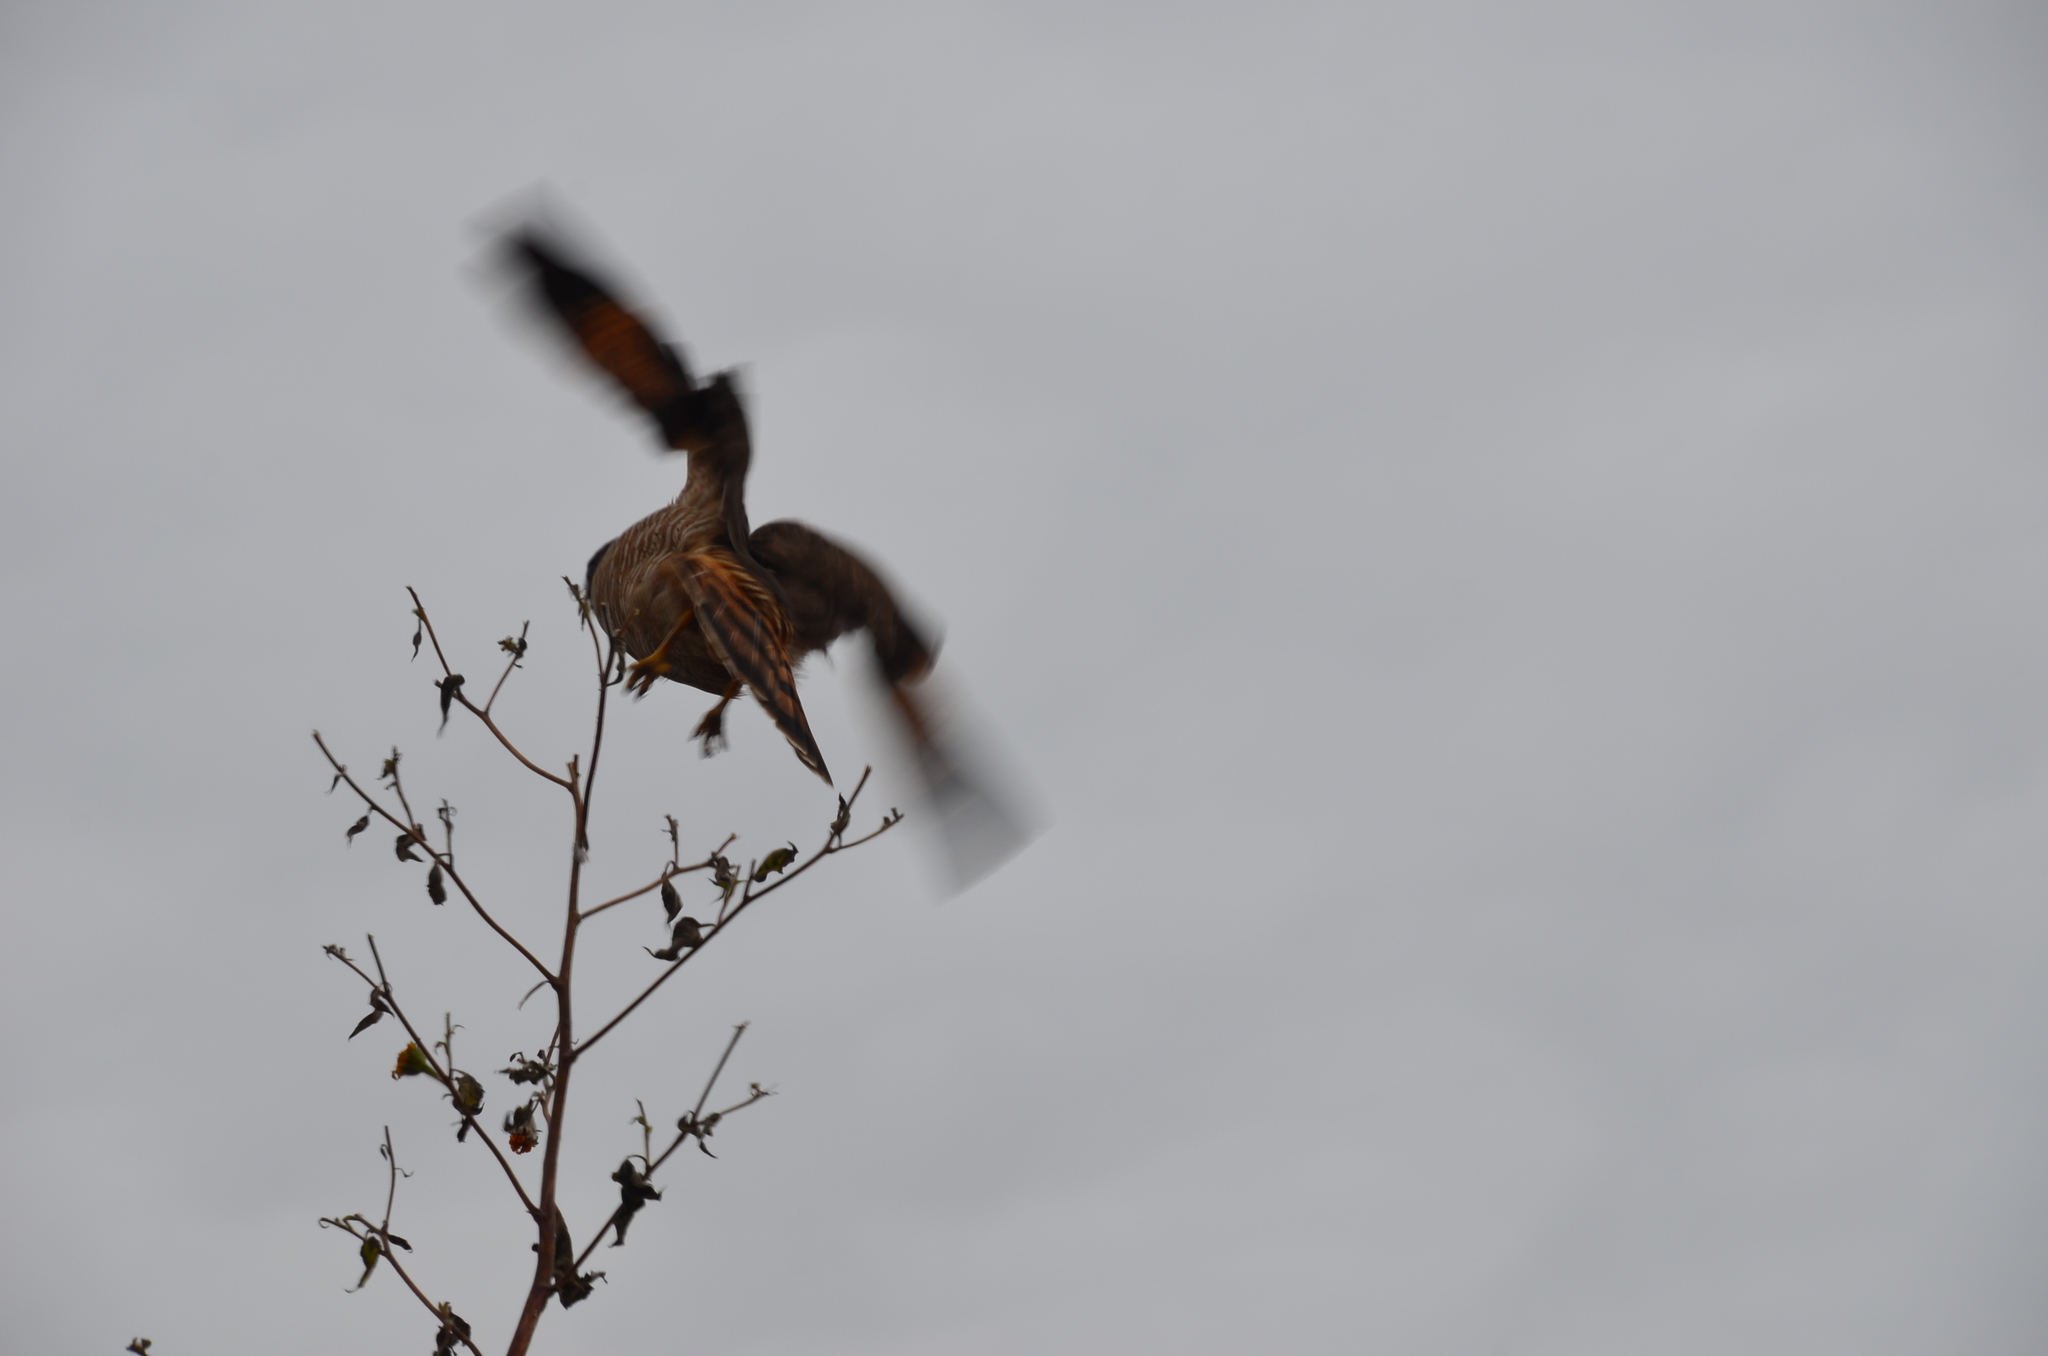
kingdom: Animalia
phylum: Chordata
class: Aves
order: Accipitriformes
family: Accipitridae
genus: Rupornis
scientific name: Rupornis magnirostris
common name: Roadside hawk
